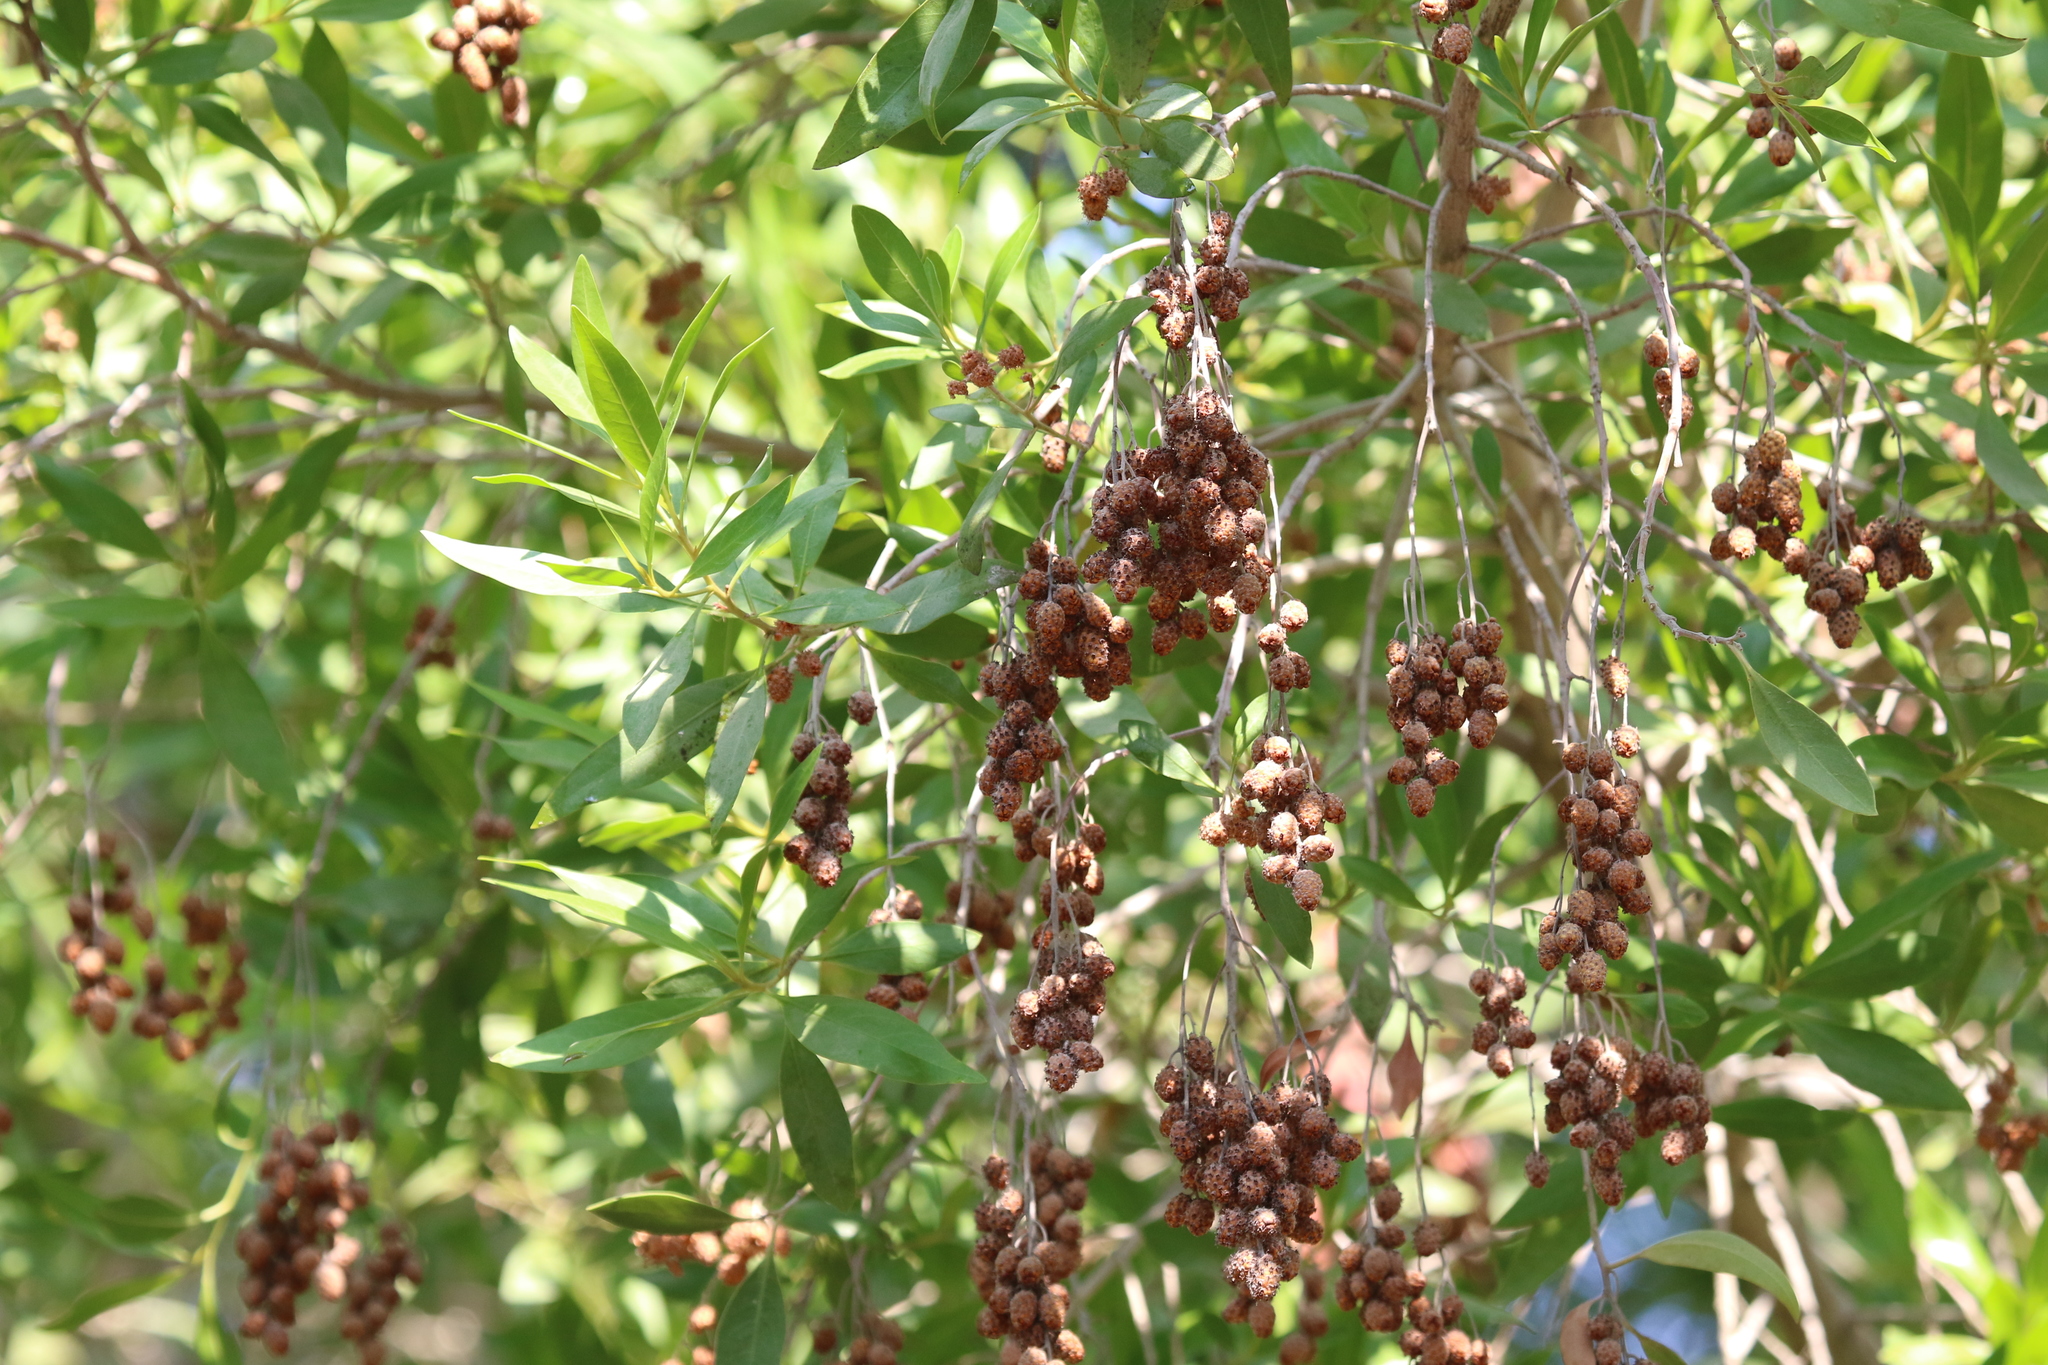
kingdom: Plantae
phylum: Tracheophyta
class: Magnoliopsida
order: Myrtales
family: Combretaceae
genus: Conocarpus
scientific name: Conocarpus erectus
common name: Button mangrove
